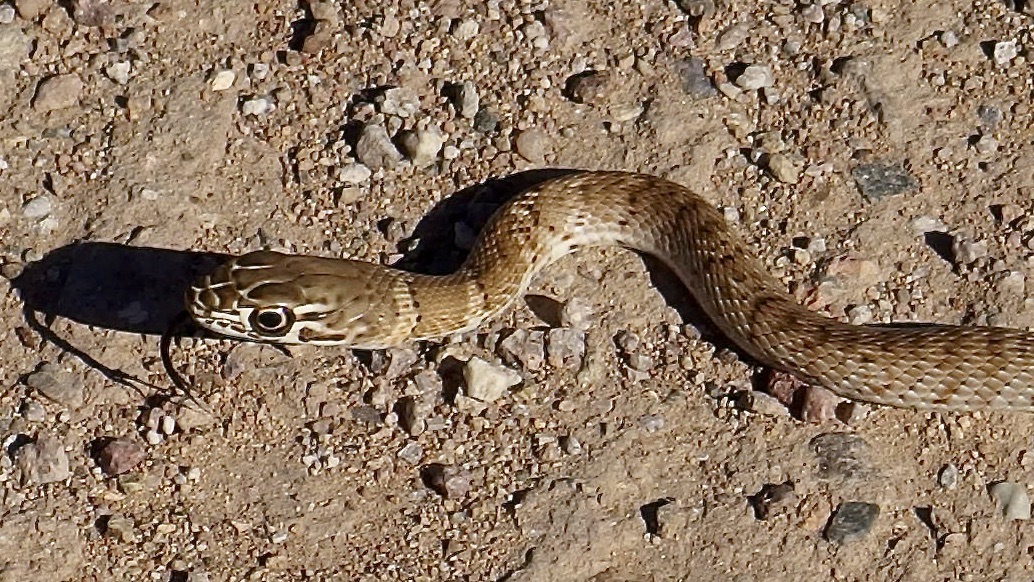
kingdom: Animalia
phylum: Chordata
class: Squamata
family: Colubridae
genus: Masticophis
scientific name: Masticophis flagellum
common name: Coachwhip
